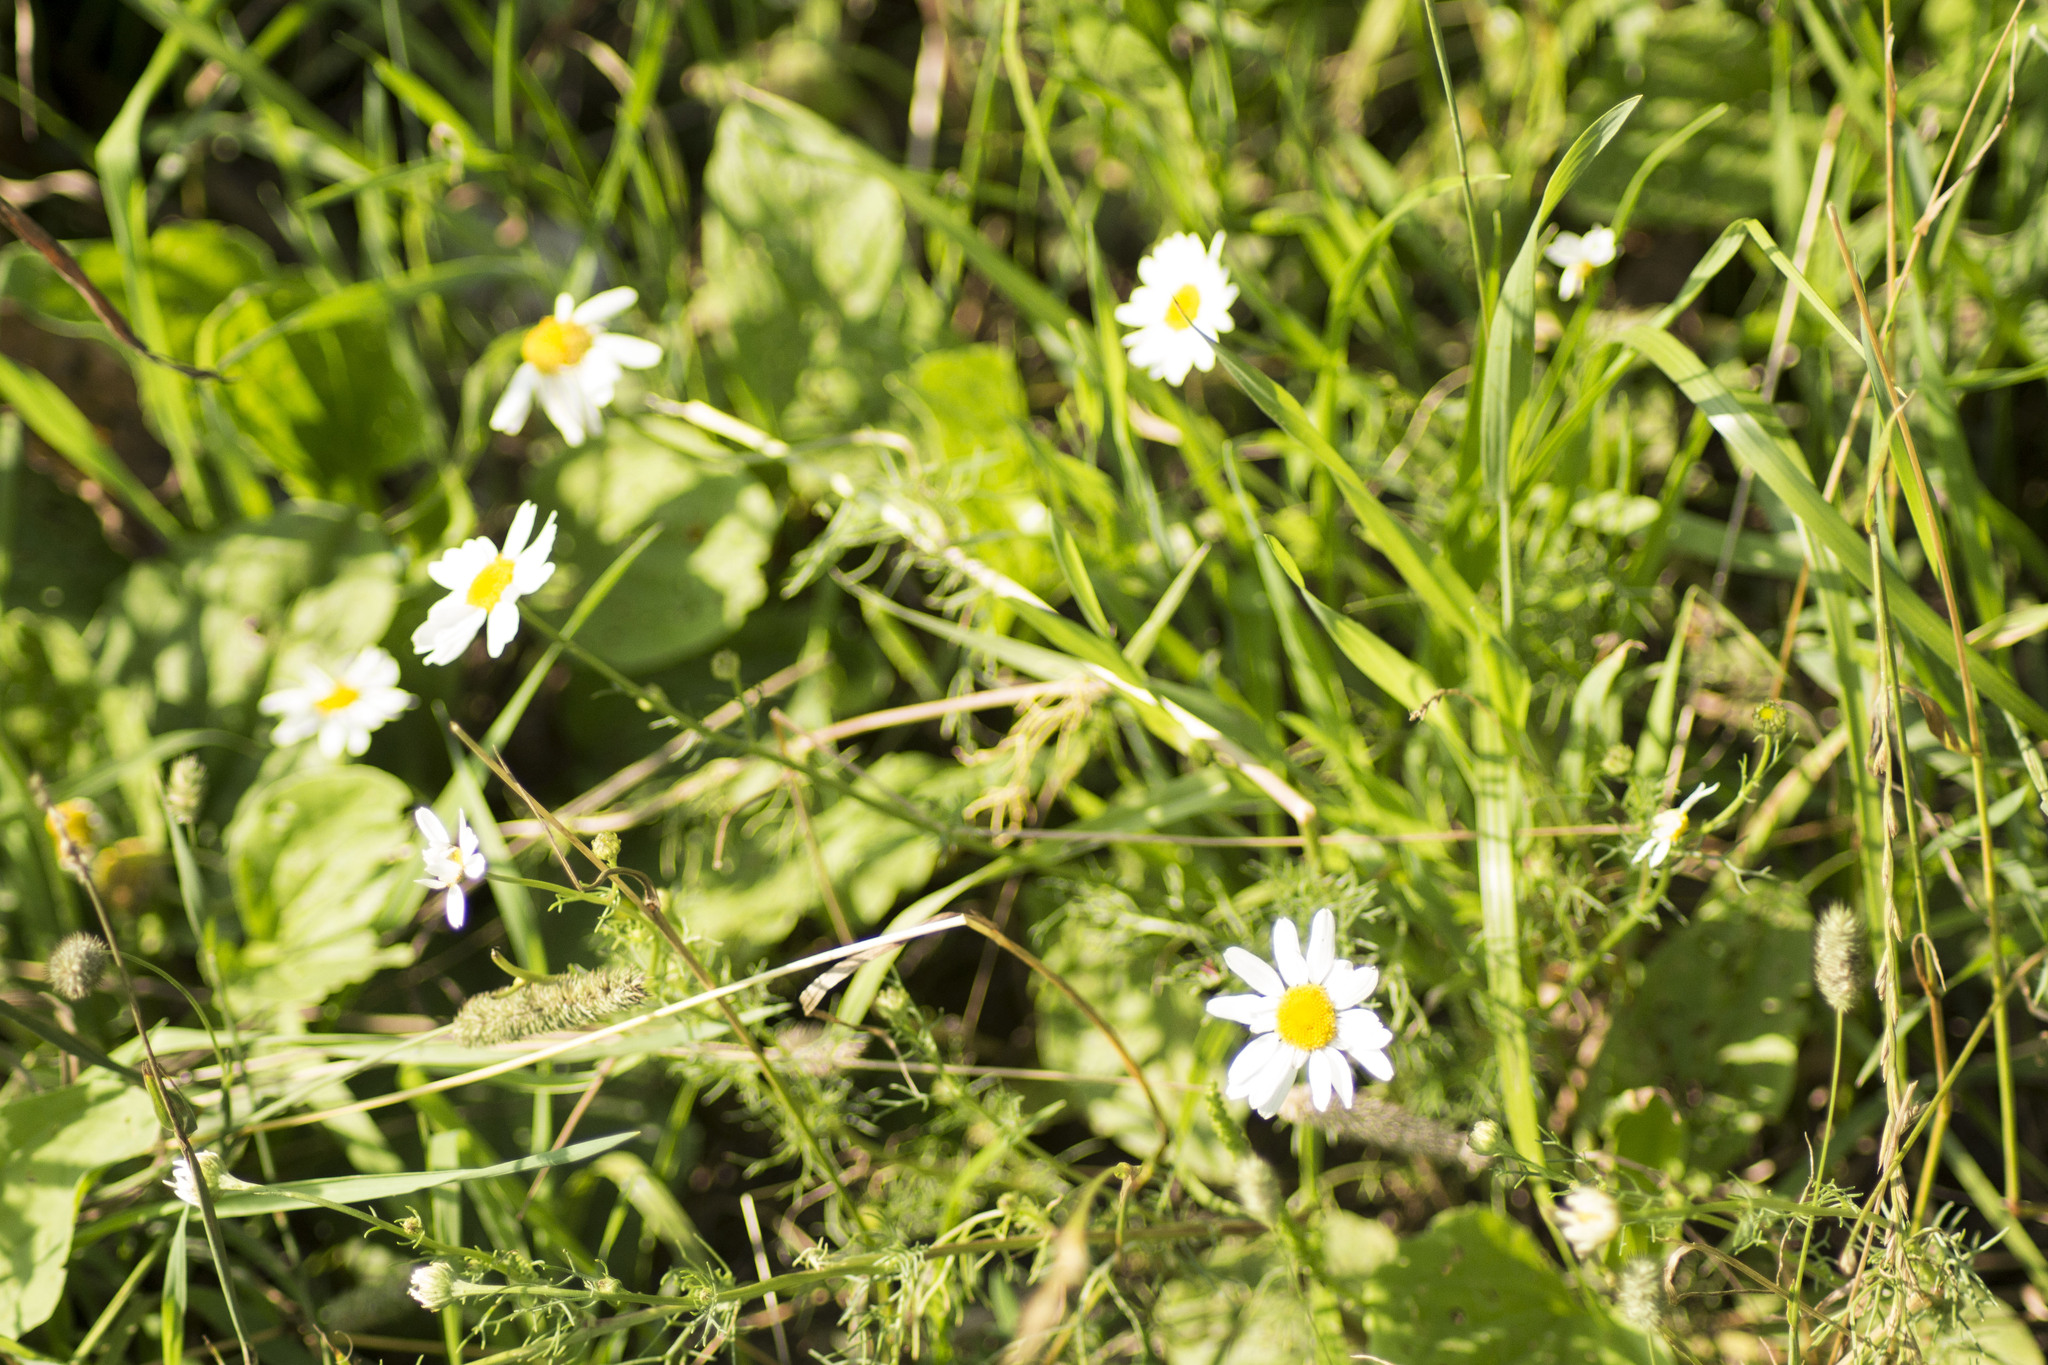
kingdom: Plantae
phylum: Tracheophyta
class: Magnoliopsida
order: Asterales
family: Asteraceae
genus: Tripleurospermum
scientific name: Tripleurospermum inodorum
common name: Scentless mayweed
